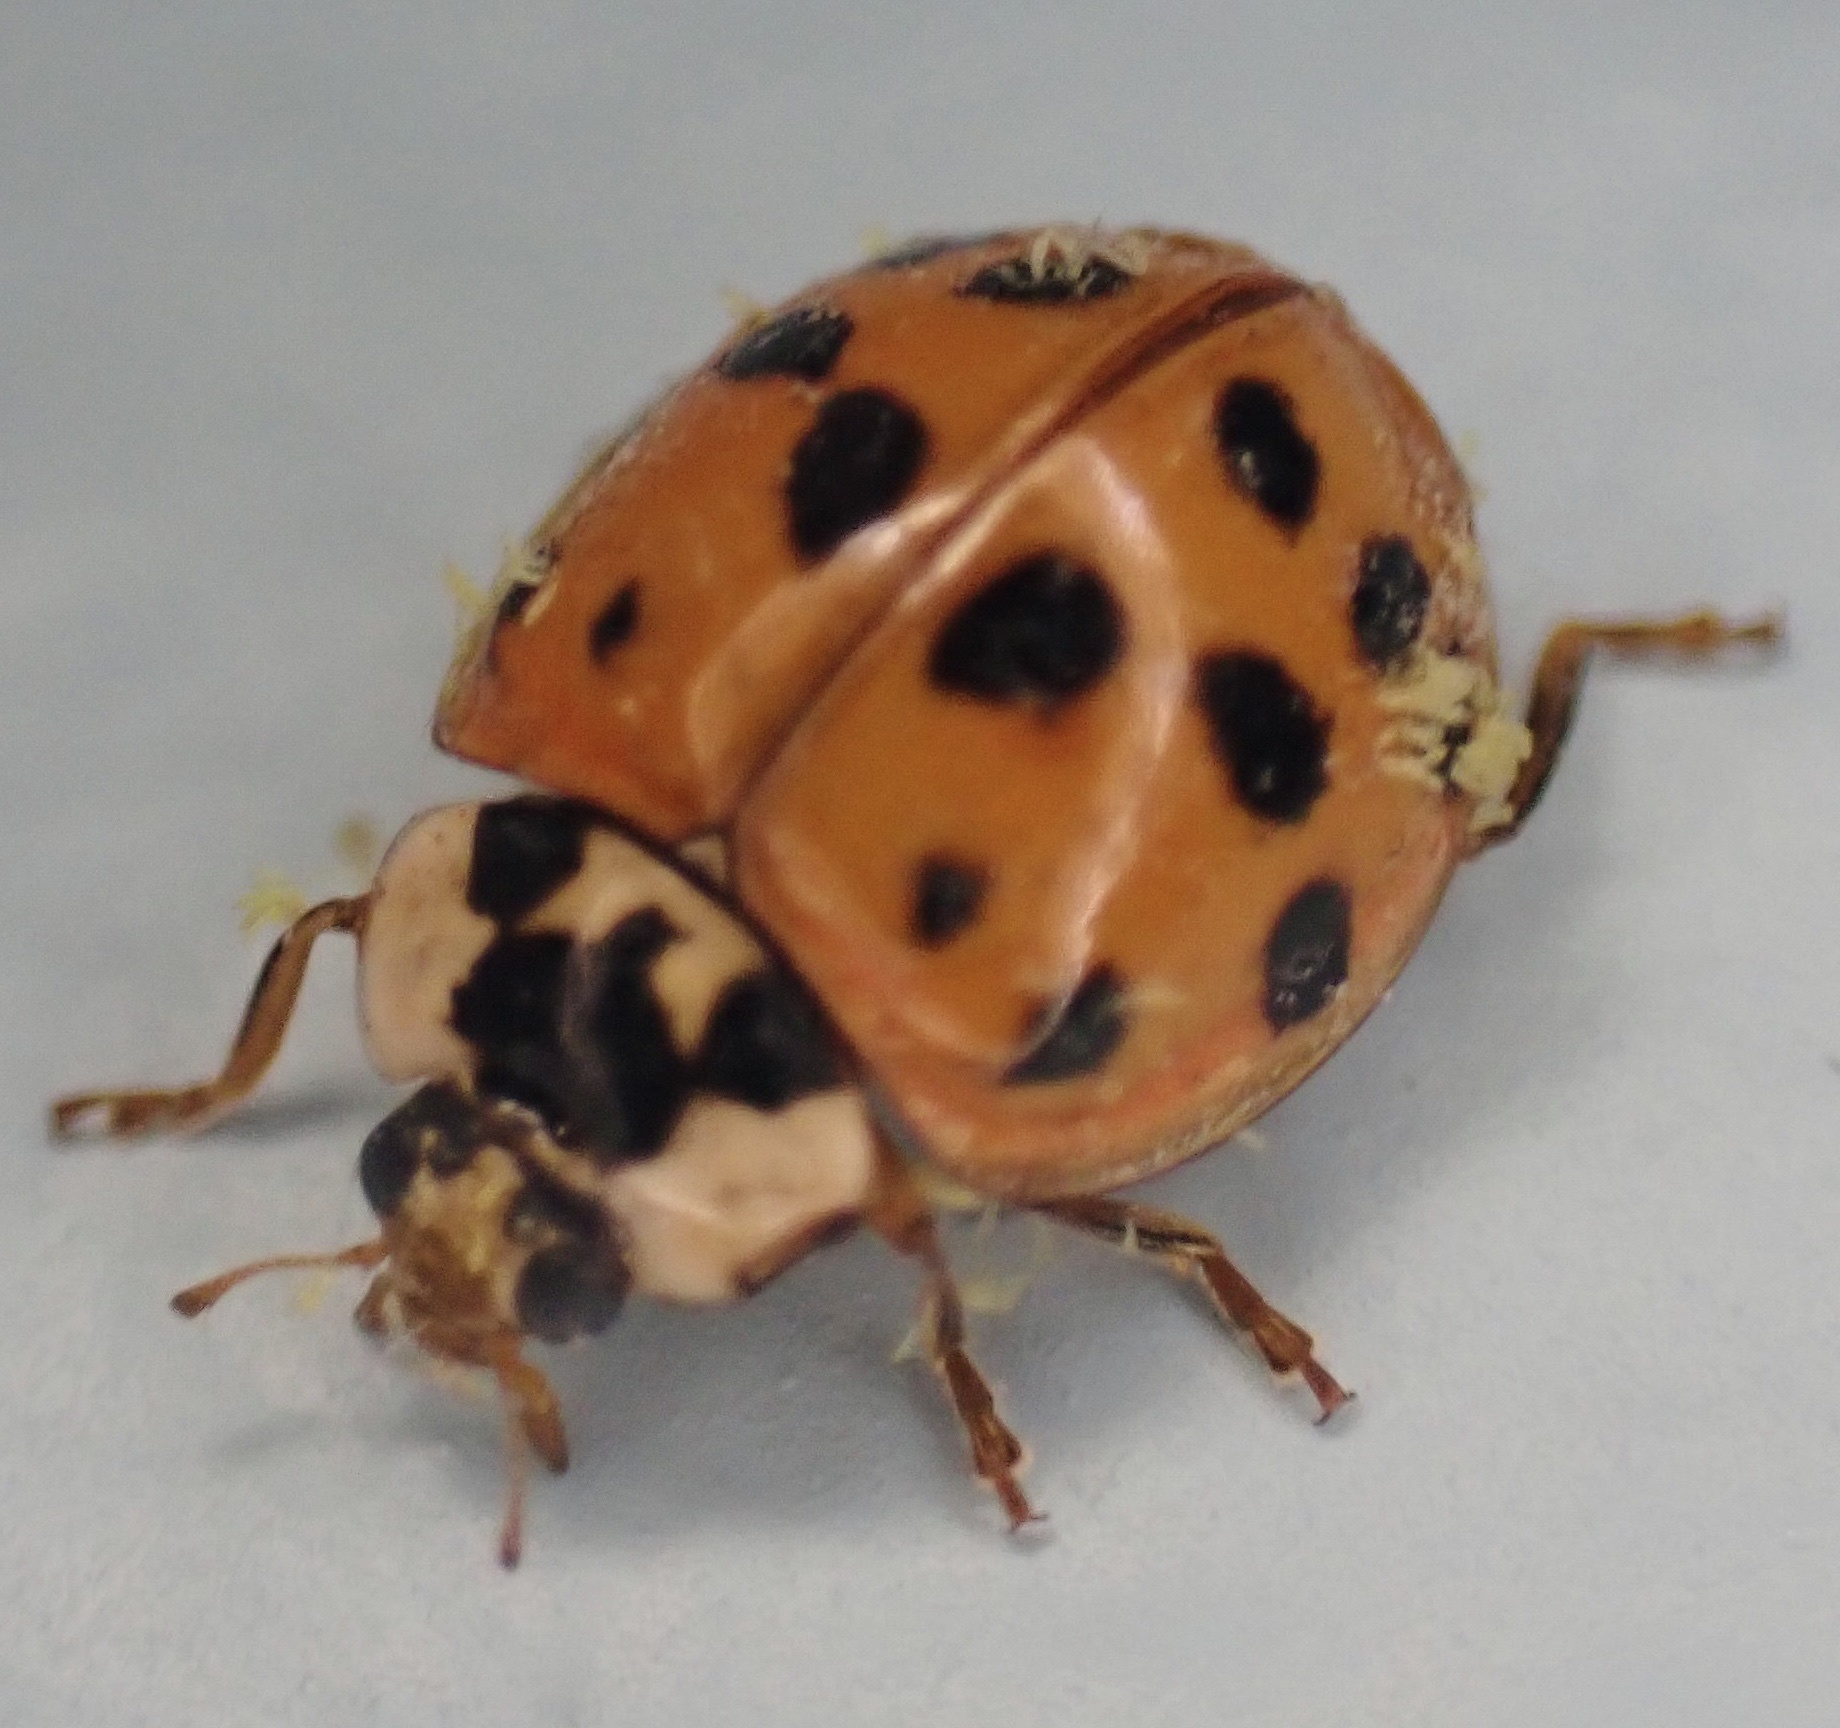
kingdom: Fungi
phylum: Ascomycota
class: Laboulbeniomycetes
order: Laboulbeniales
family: Laboulbeniaceae
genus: Hesperomyces
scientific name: Hesperomyces harmoniae
